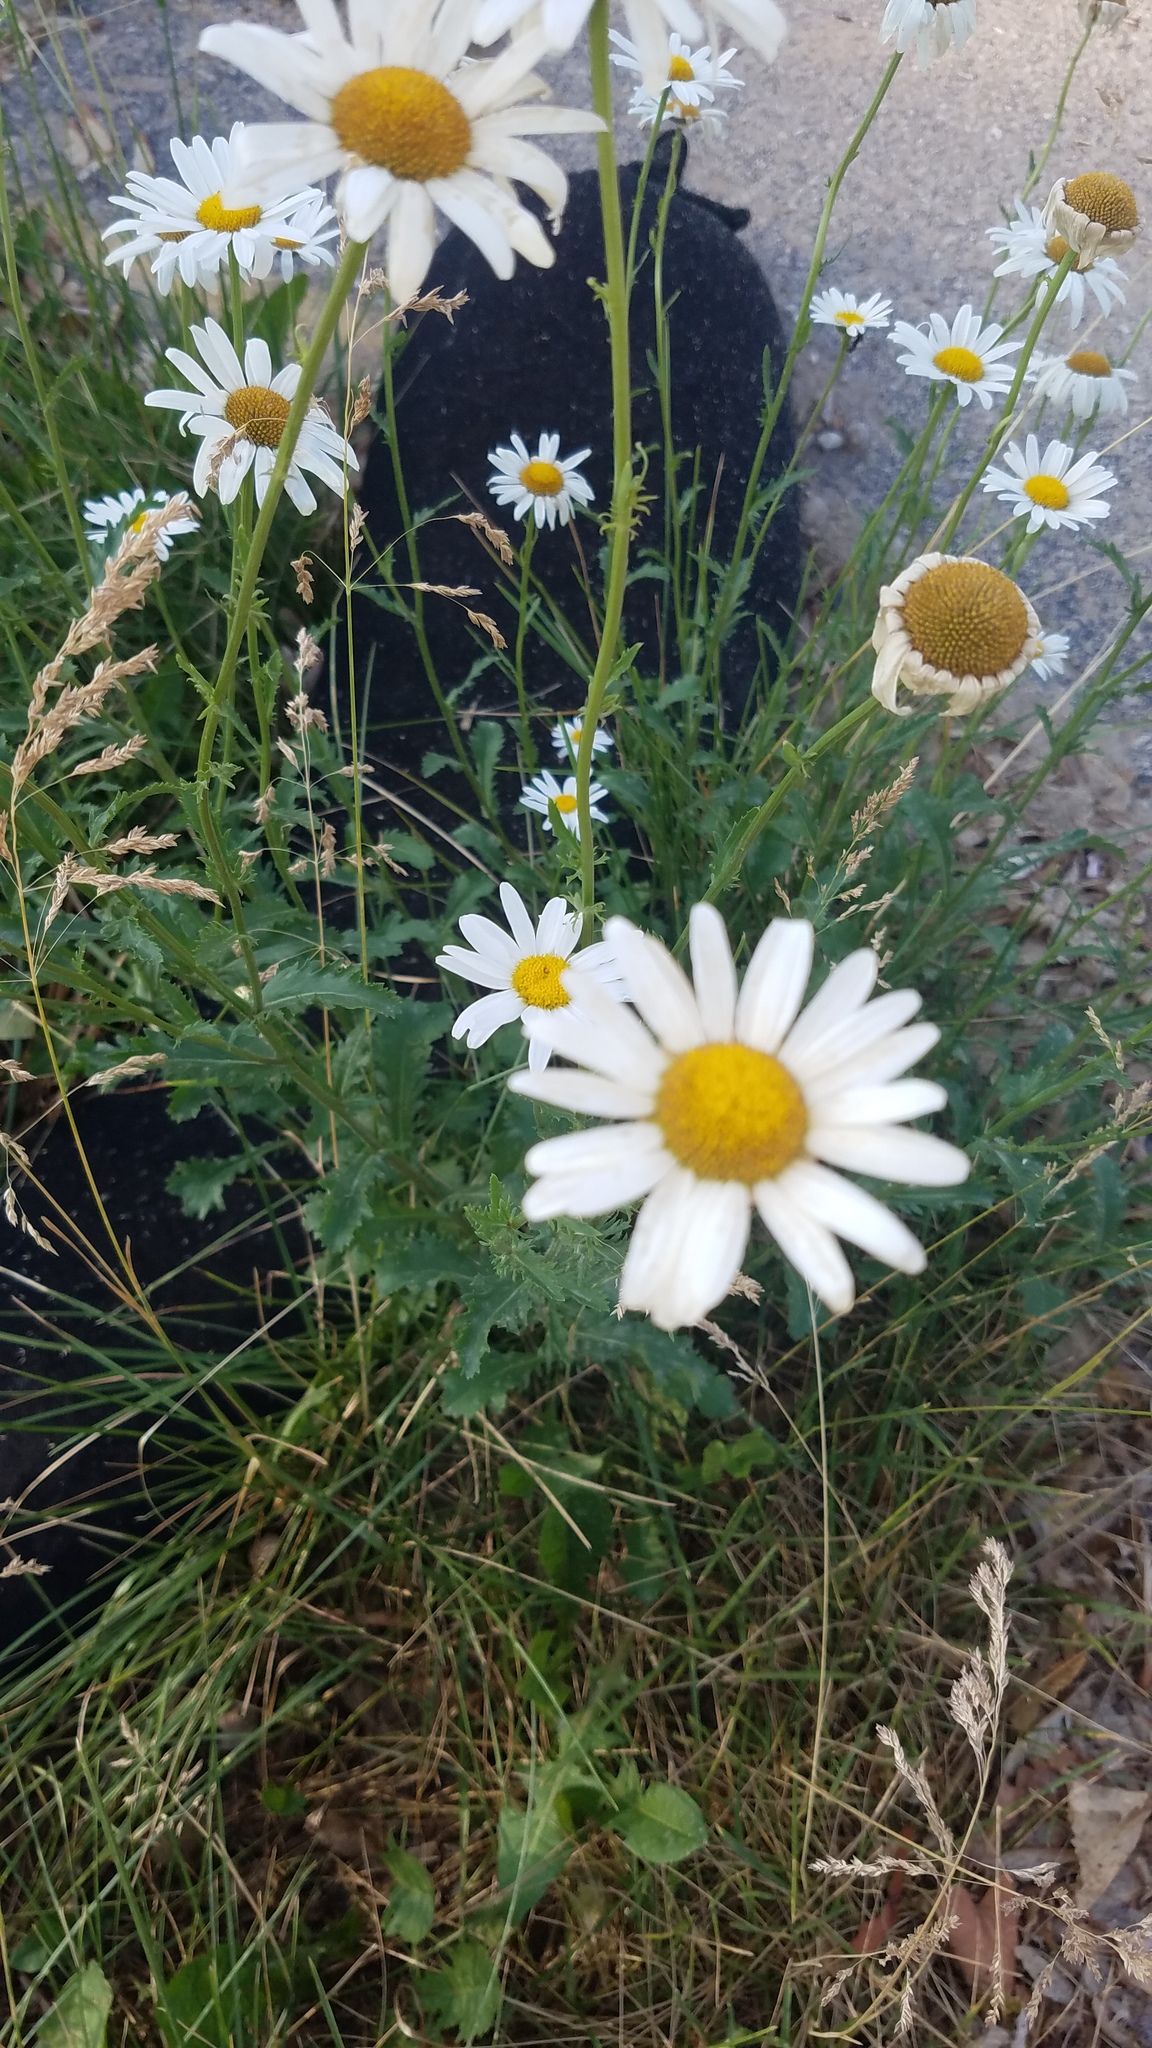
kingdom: Plantae
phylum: Tracheophyta
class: Magnoliopsida
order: Asterales
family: Asteraceae
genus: Leucanthemum
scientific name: Leucanthemum vulgare
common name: Oxeye daisy
